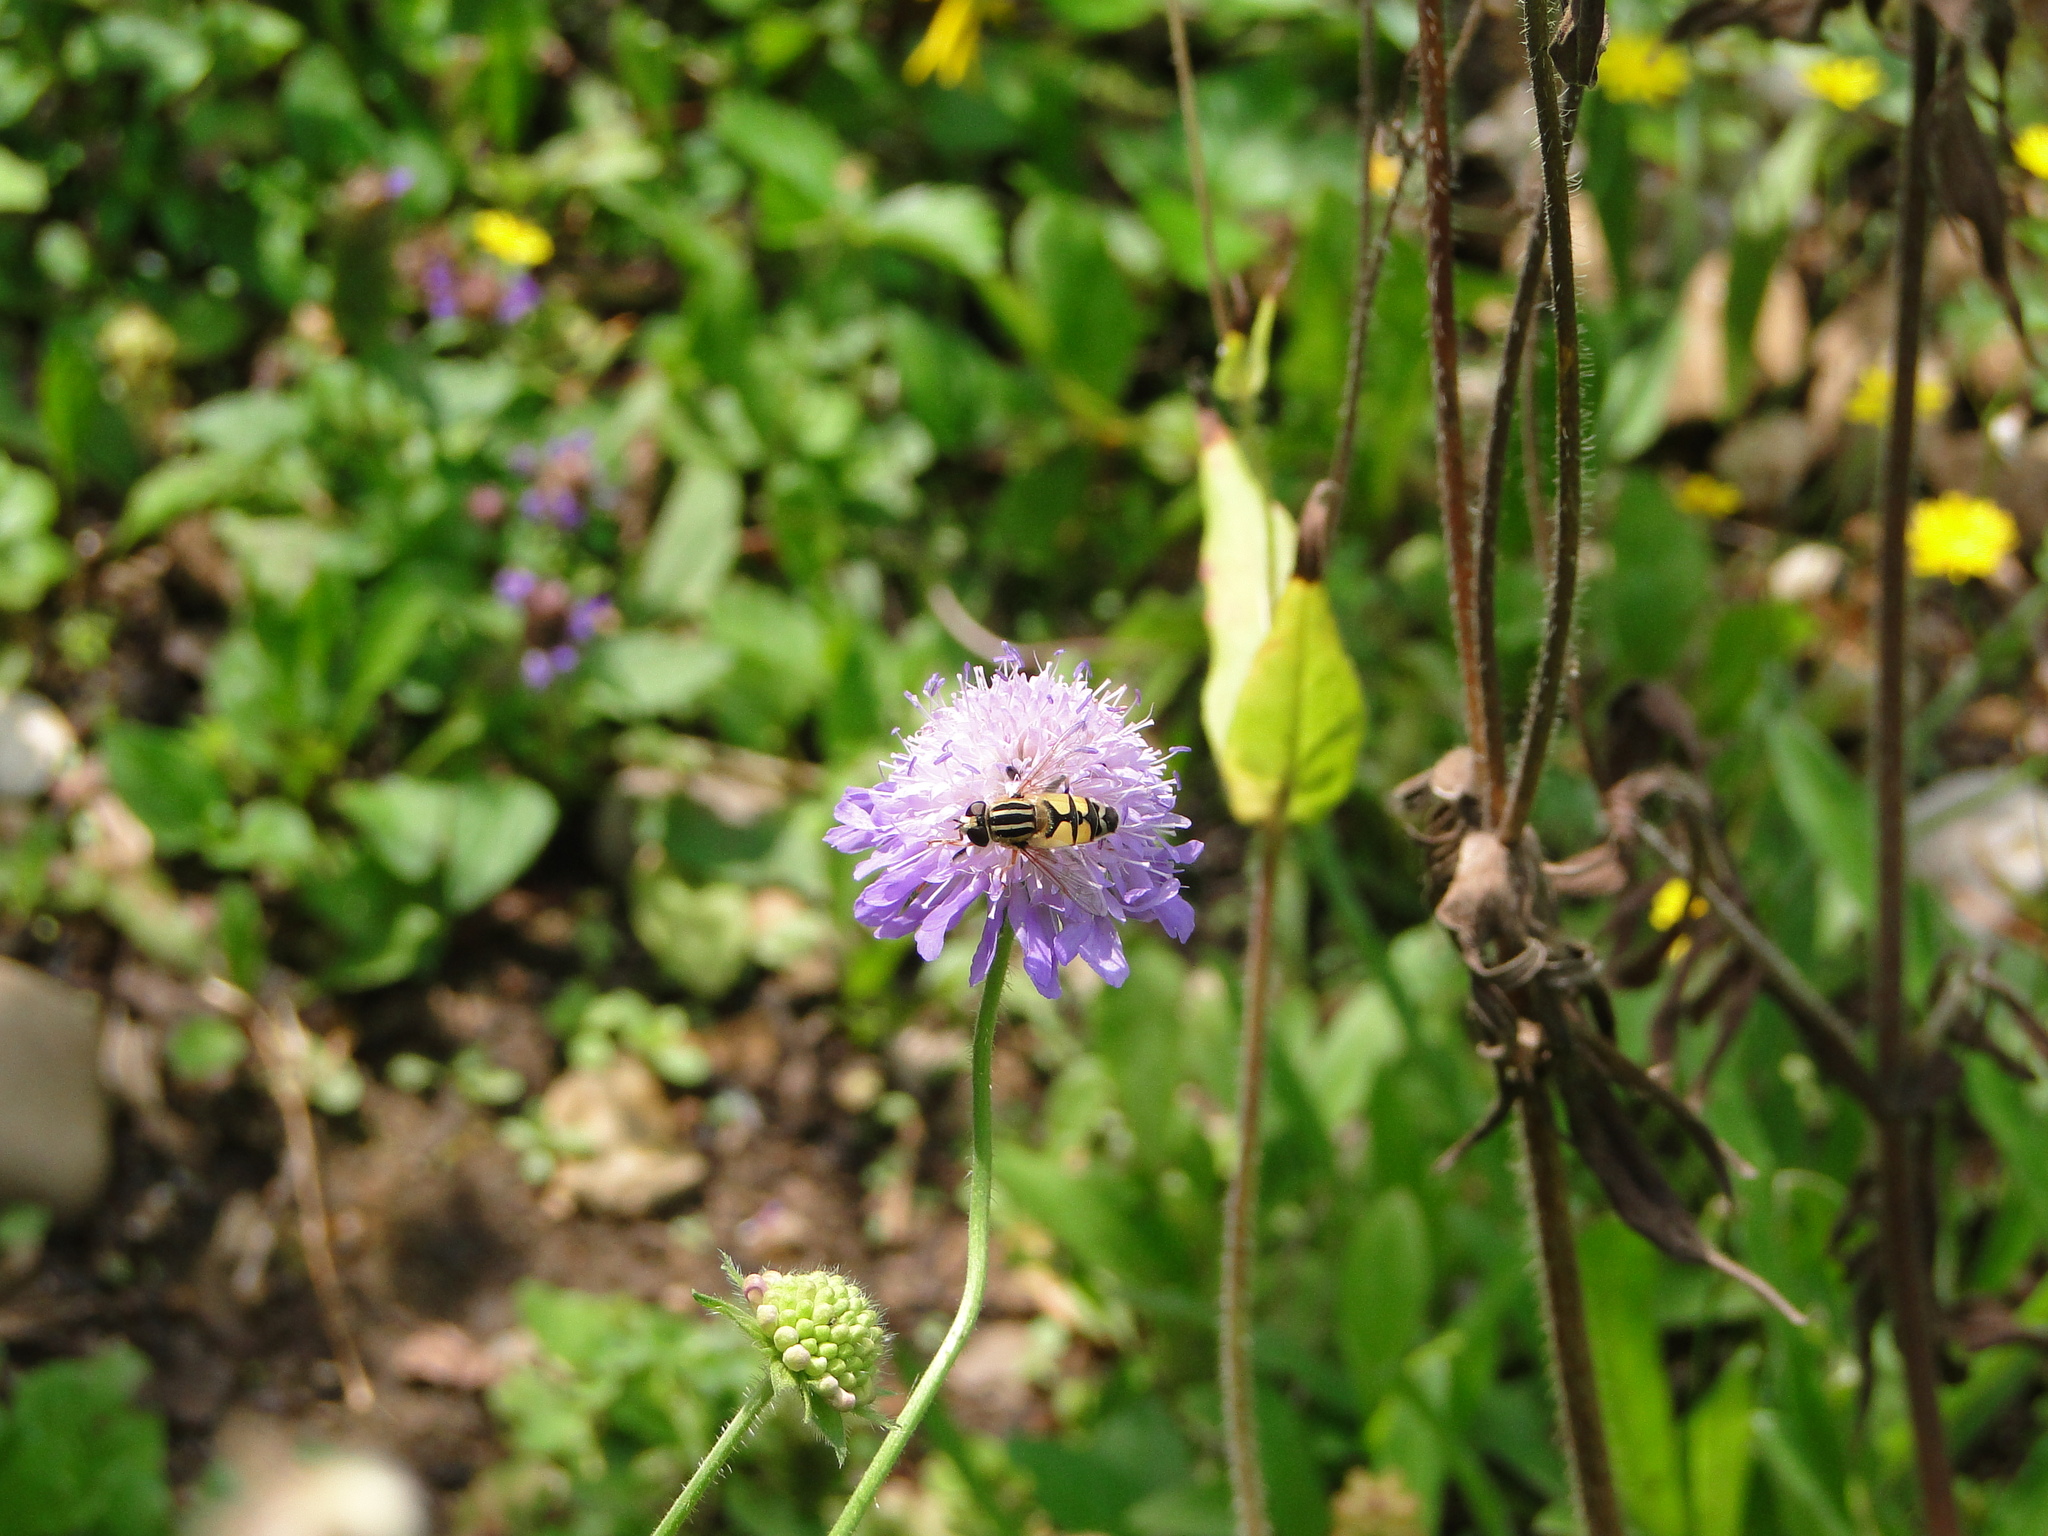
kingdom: Animalia
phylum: Arthropoda
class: Insecta
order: Diptera
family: Syrphidae
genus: Helophilus
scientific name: Helophilus trivittatus
